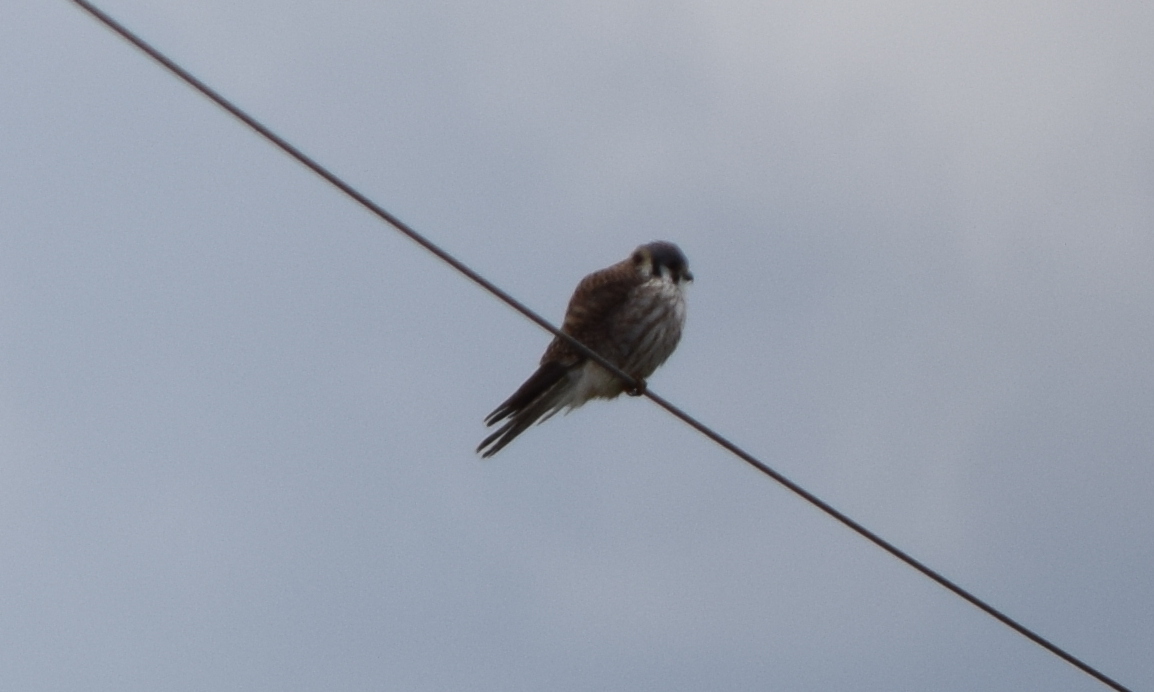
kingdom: Animalia
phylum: Chordata
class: Aves
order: Falconiformes
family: Falconidae
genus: Falco
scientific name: Falco sparverius
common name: American kestrel
